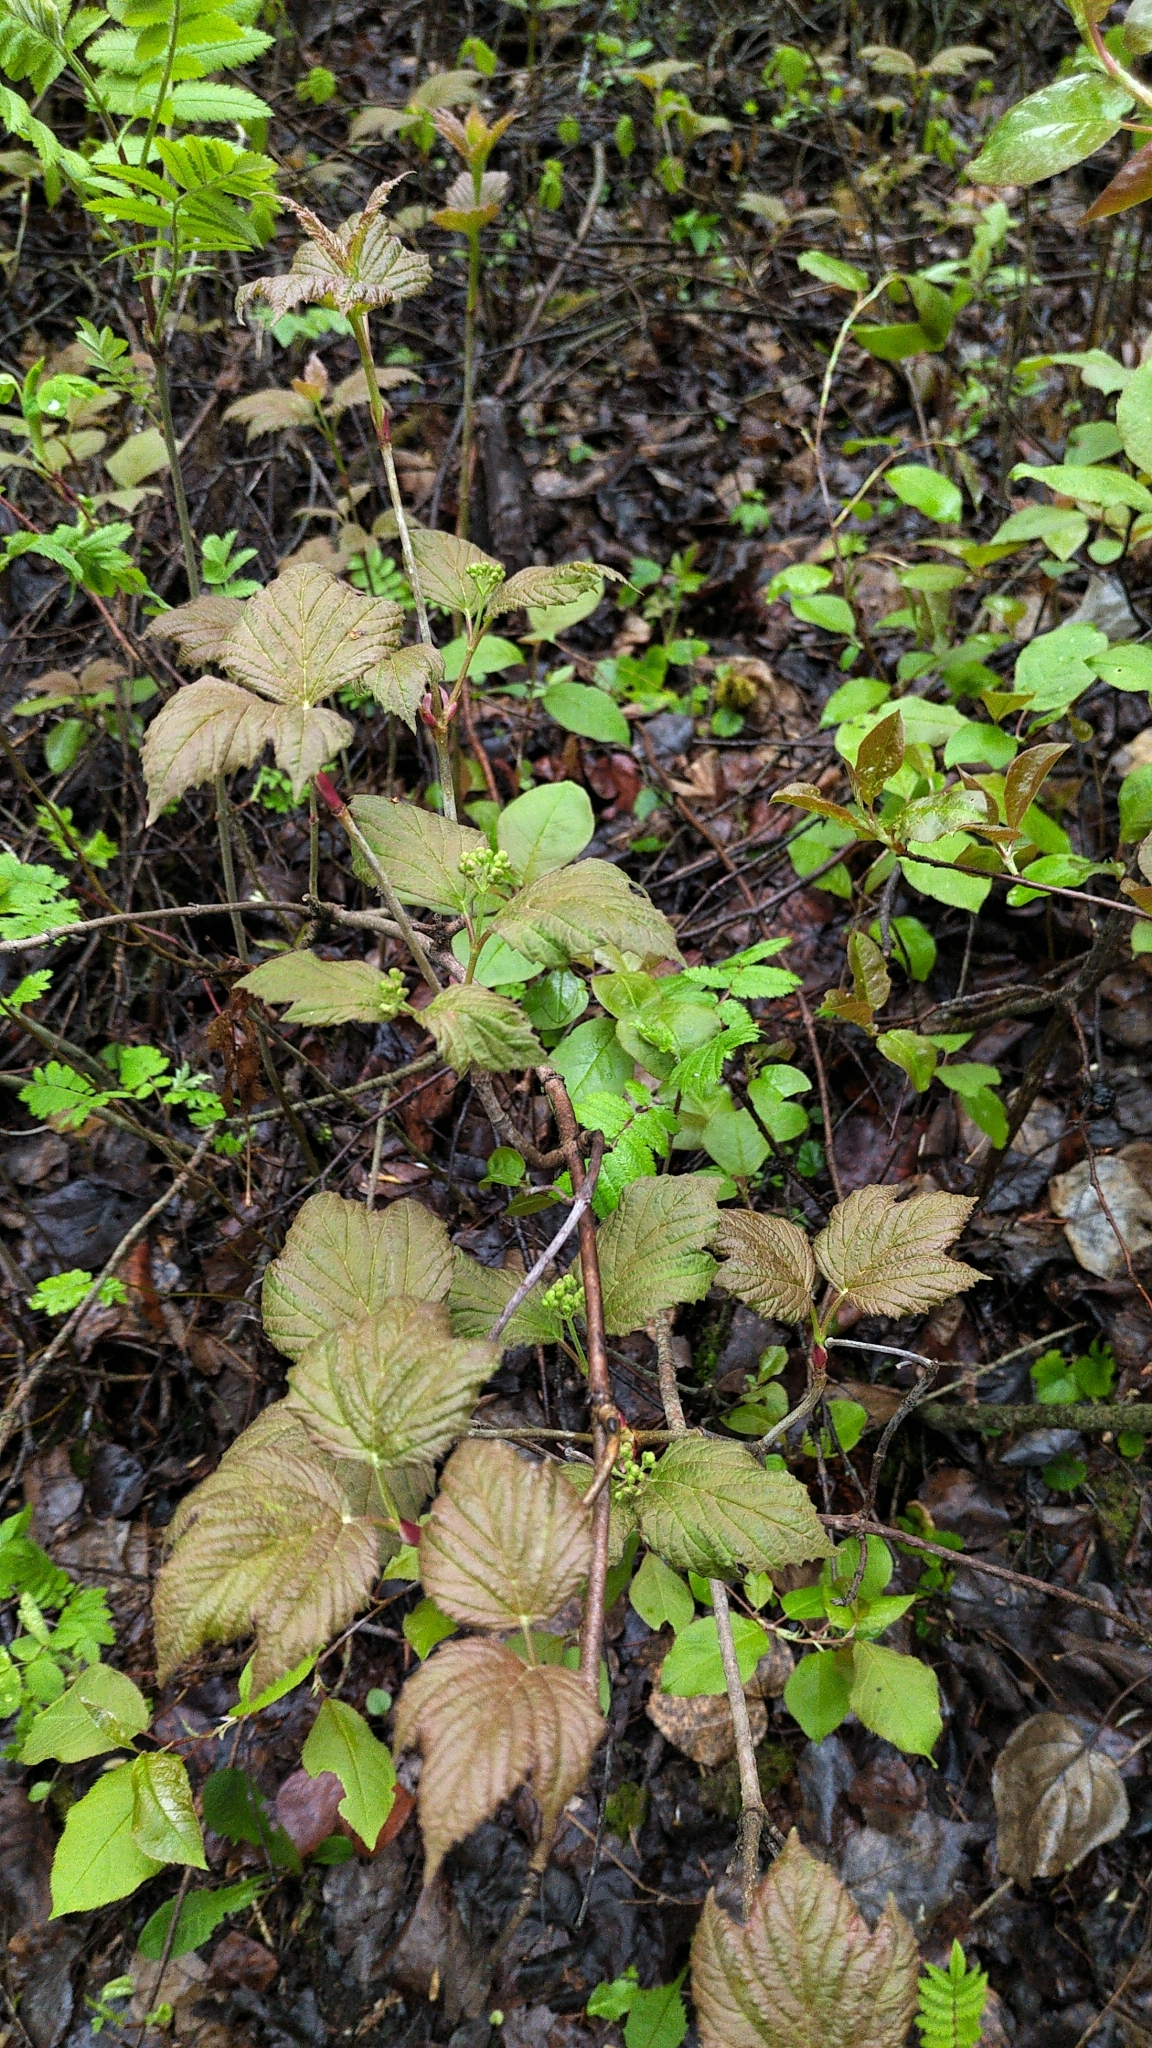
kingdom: Plantae
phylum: Tracheophyta
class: Magnoliopsida
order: Dipsacales
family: Viburnaceae
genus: Viburnum
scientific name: Viburnum edule
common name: Mooseberry
